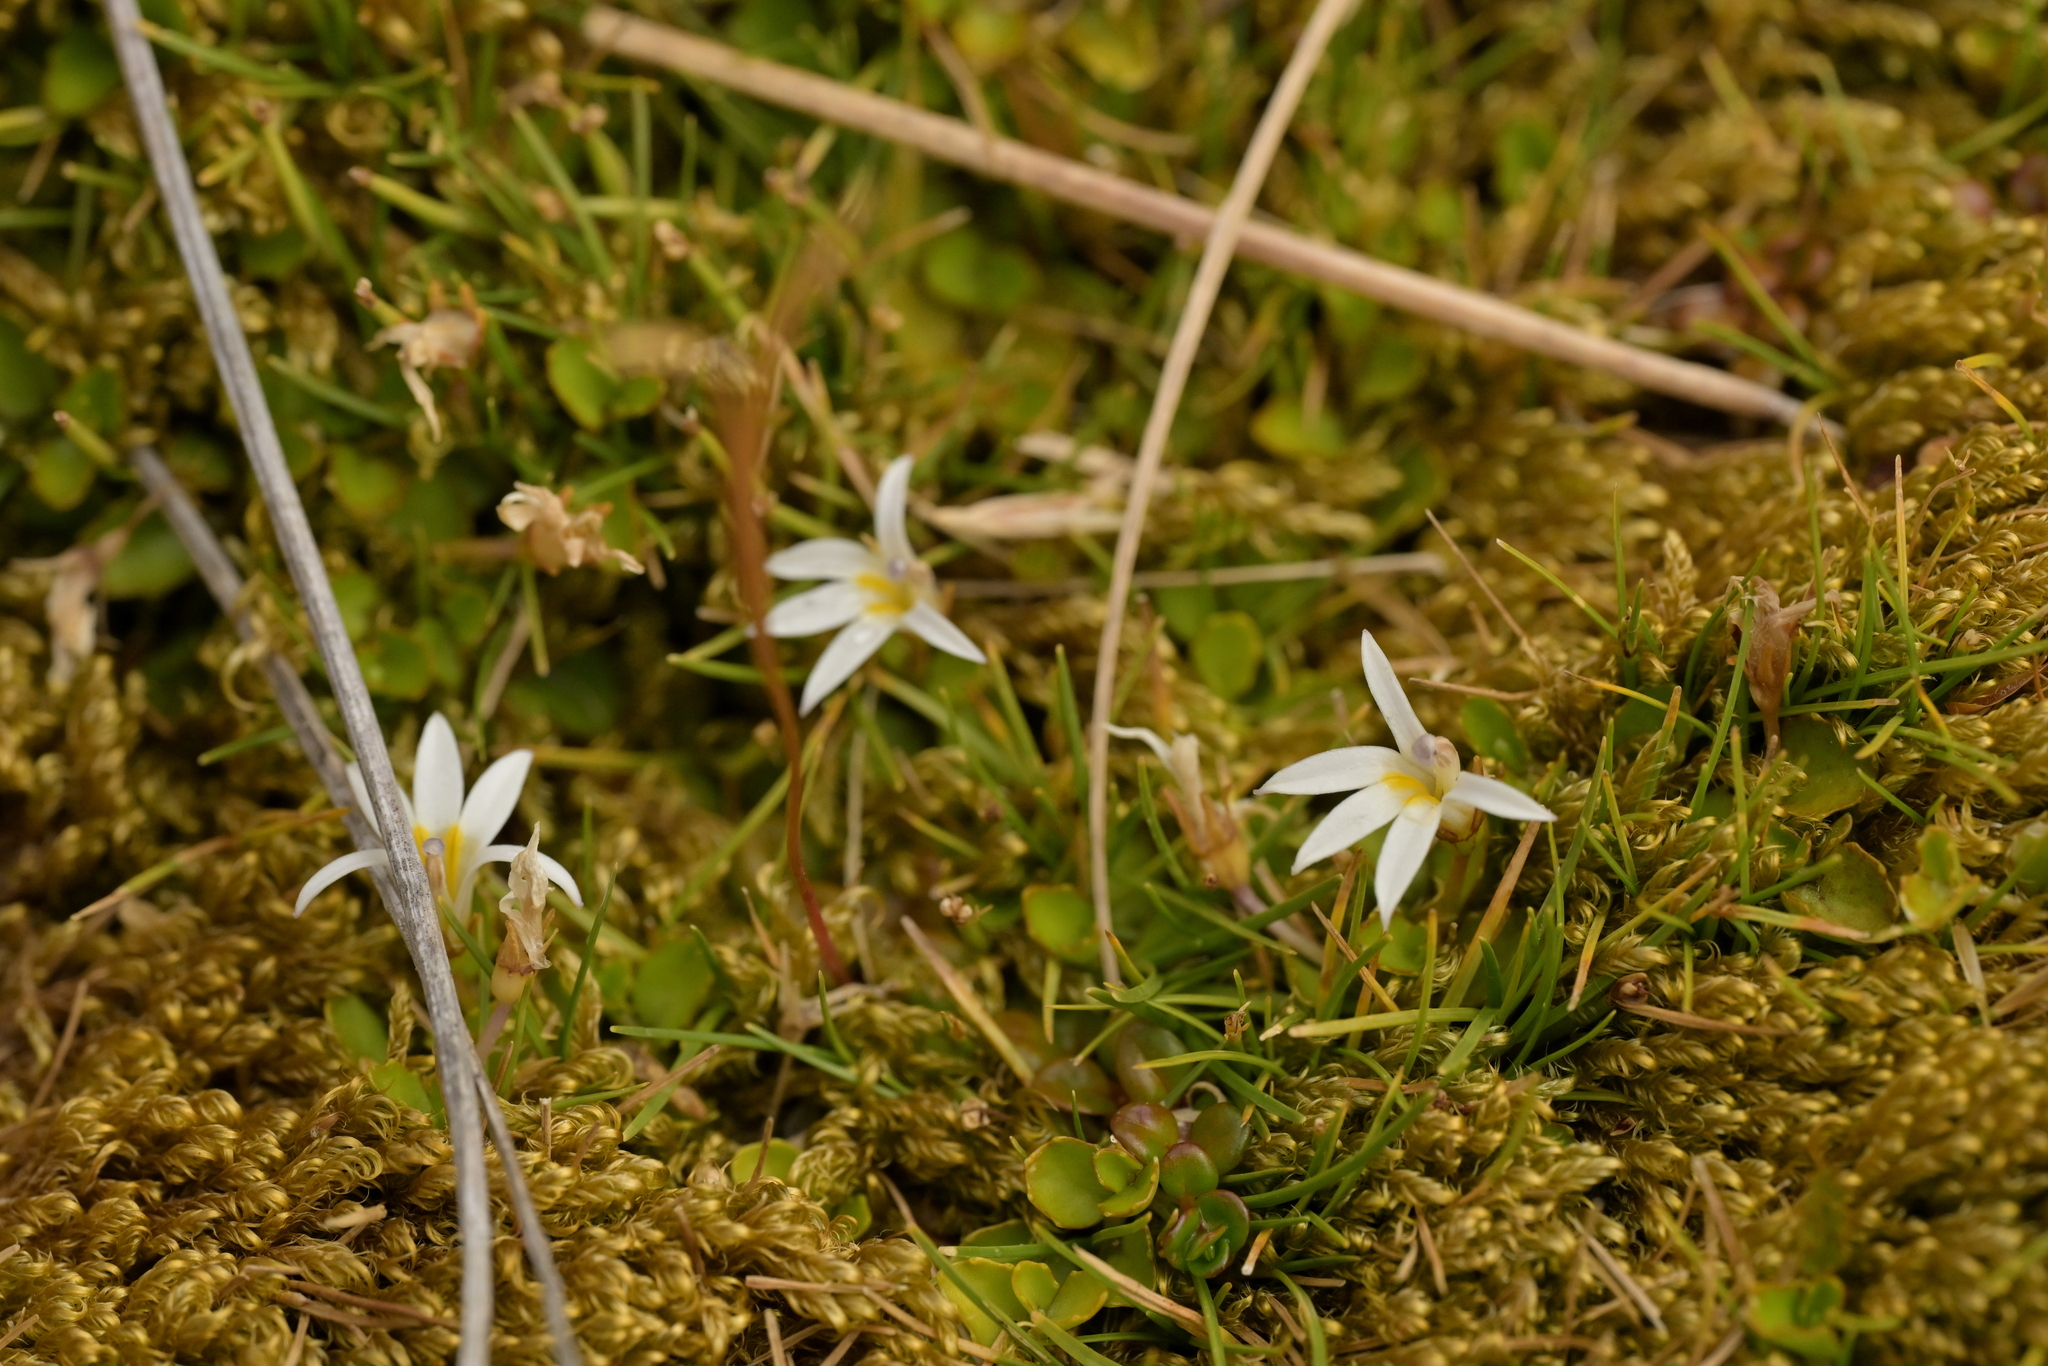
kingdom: Plantae
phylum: Tracheophyta
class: Magnoliopsida
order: Asterales
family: Campanulaceae
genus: Lobelia
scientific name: Lobelia angulata
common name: Lawn lobelia
